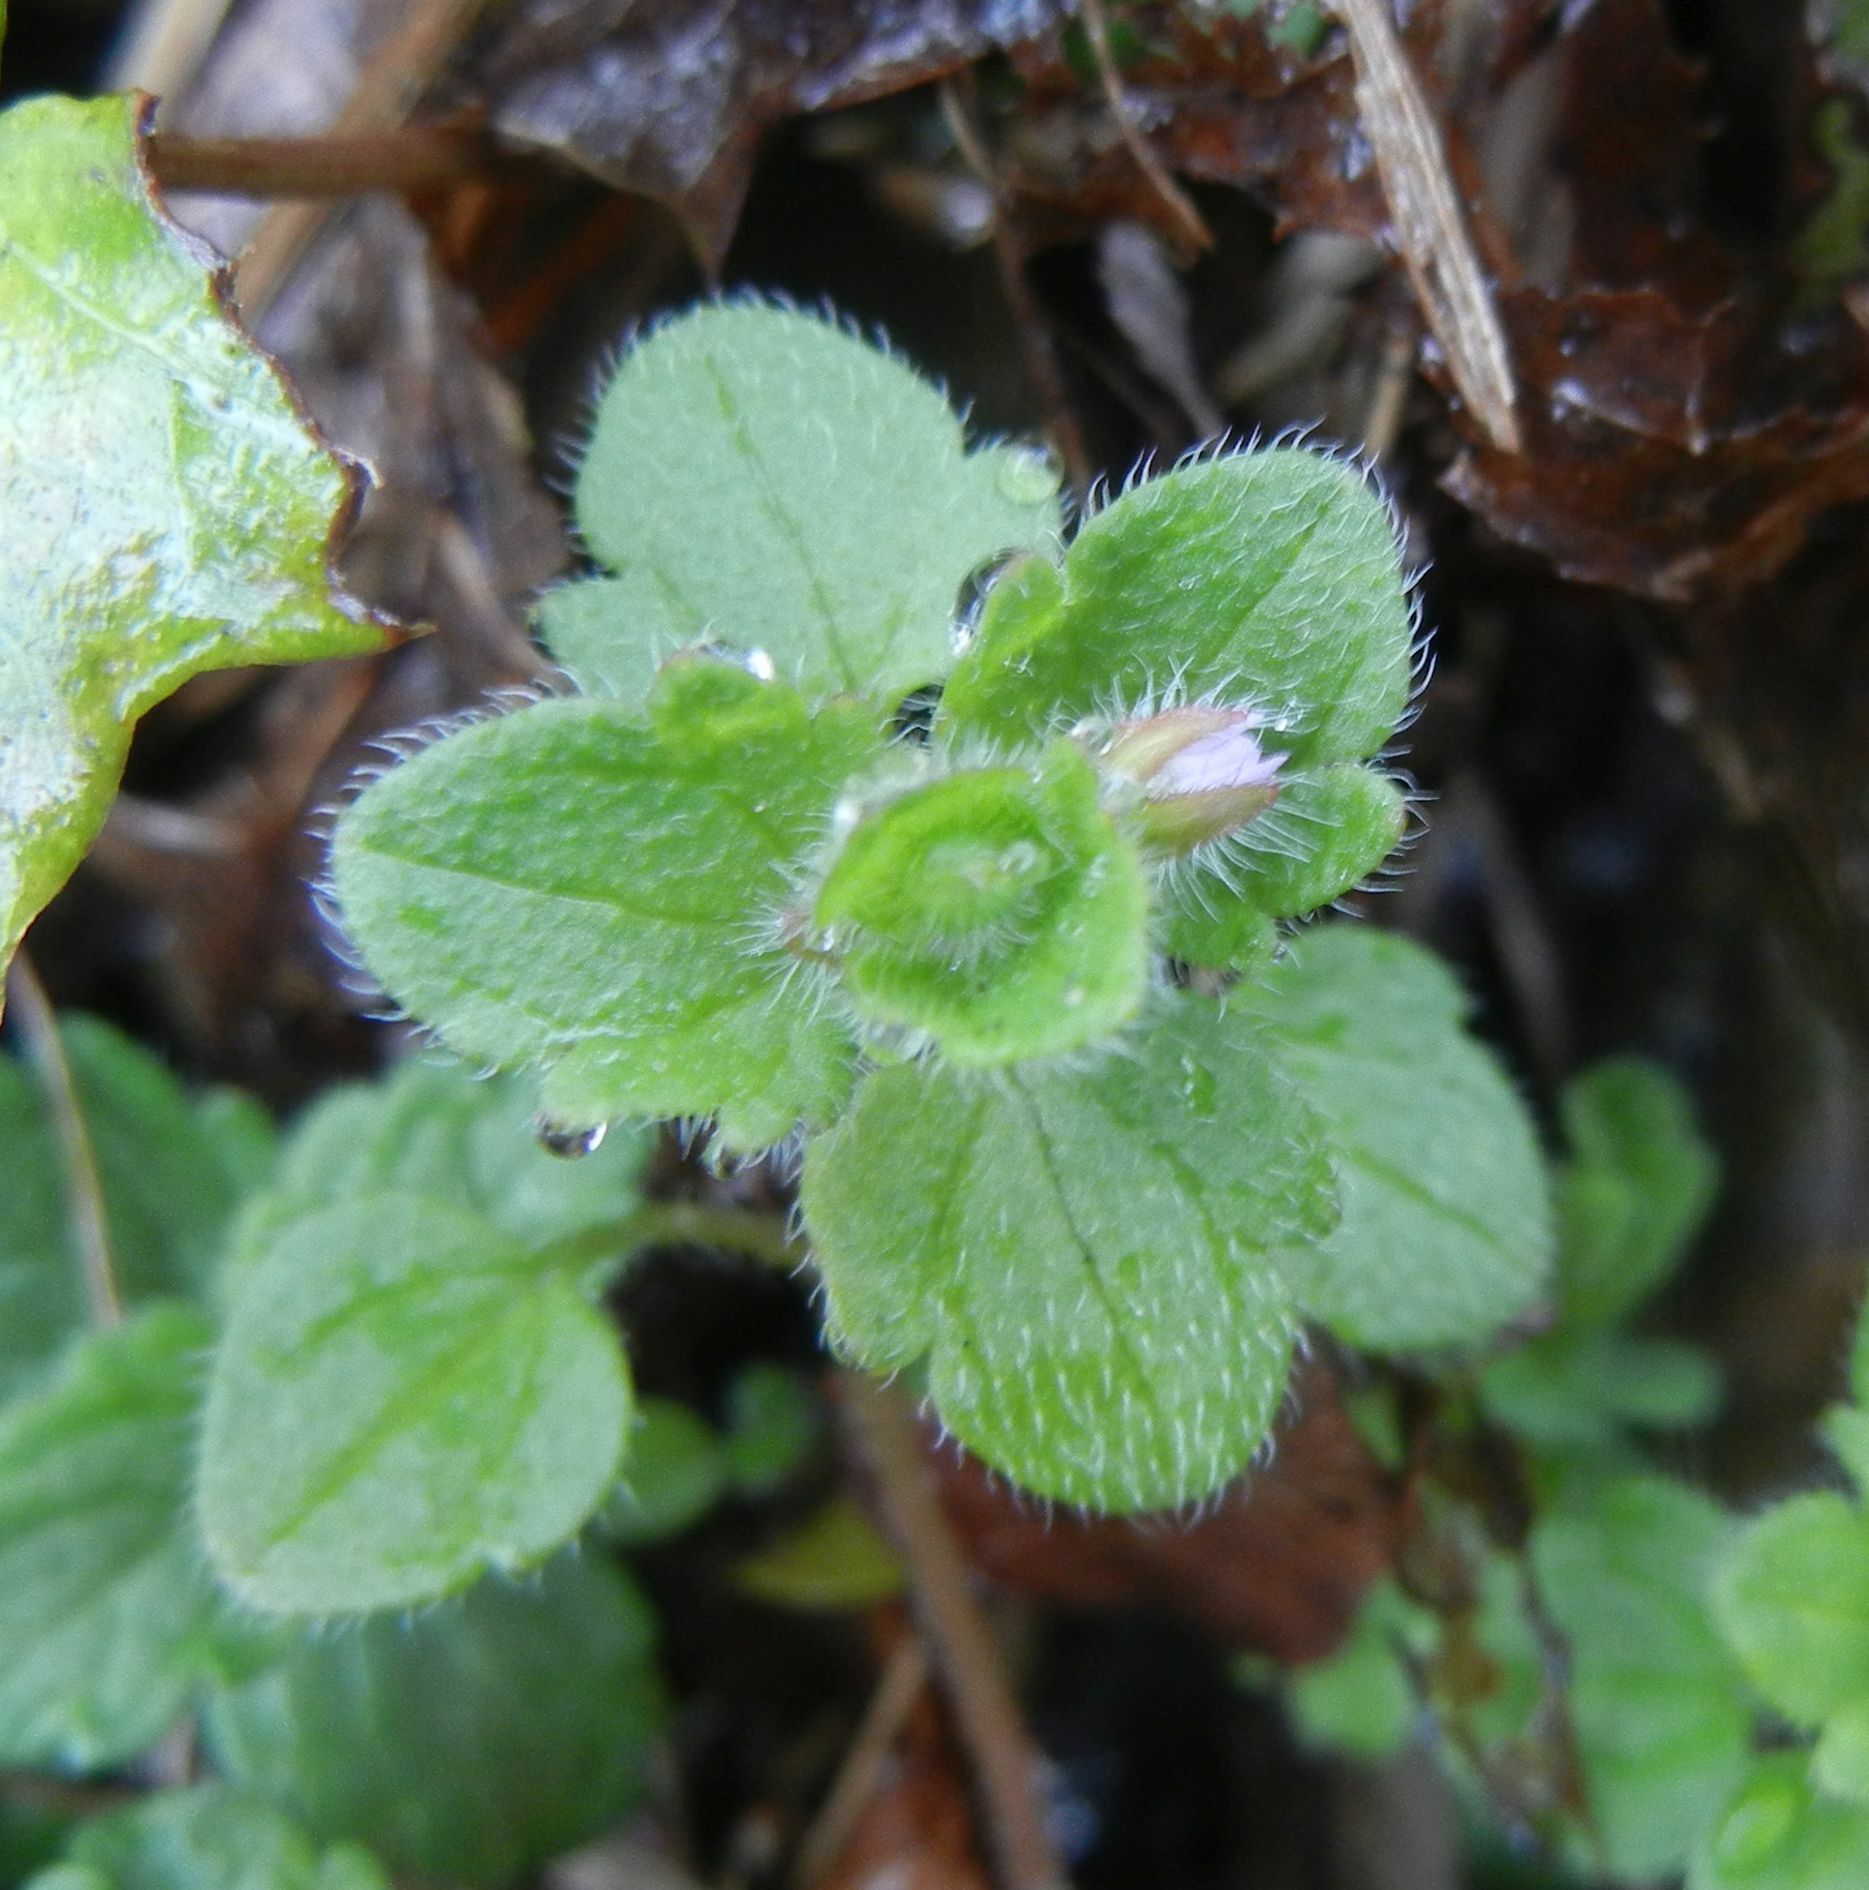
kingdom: Plantae
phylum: Tracheophyta
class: Magnoliopsida
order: Lamiales
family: Plantaginaceae
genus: Veronica
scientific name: Veronica sublobata
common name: False ivy-leaved speedwell
